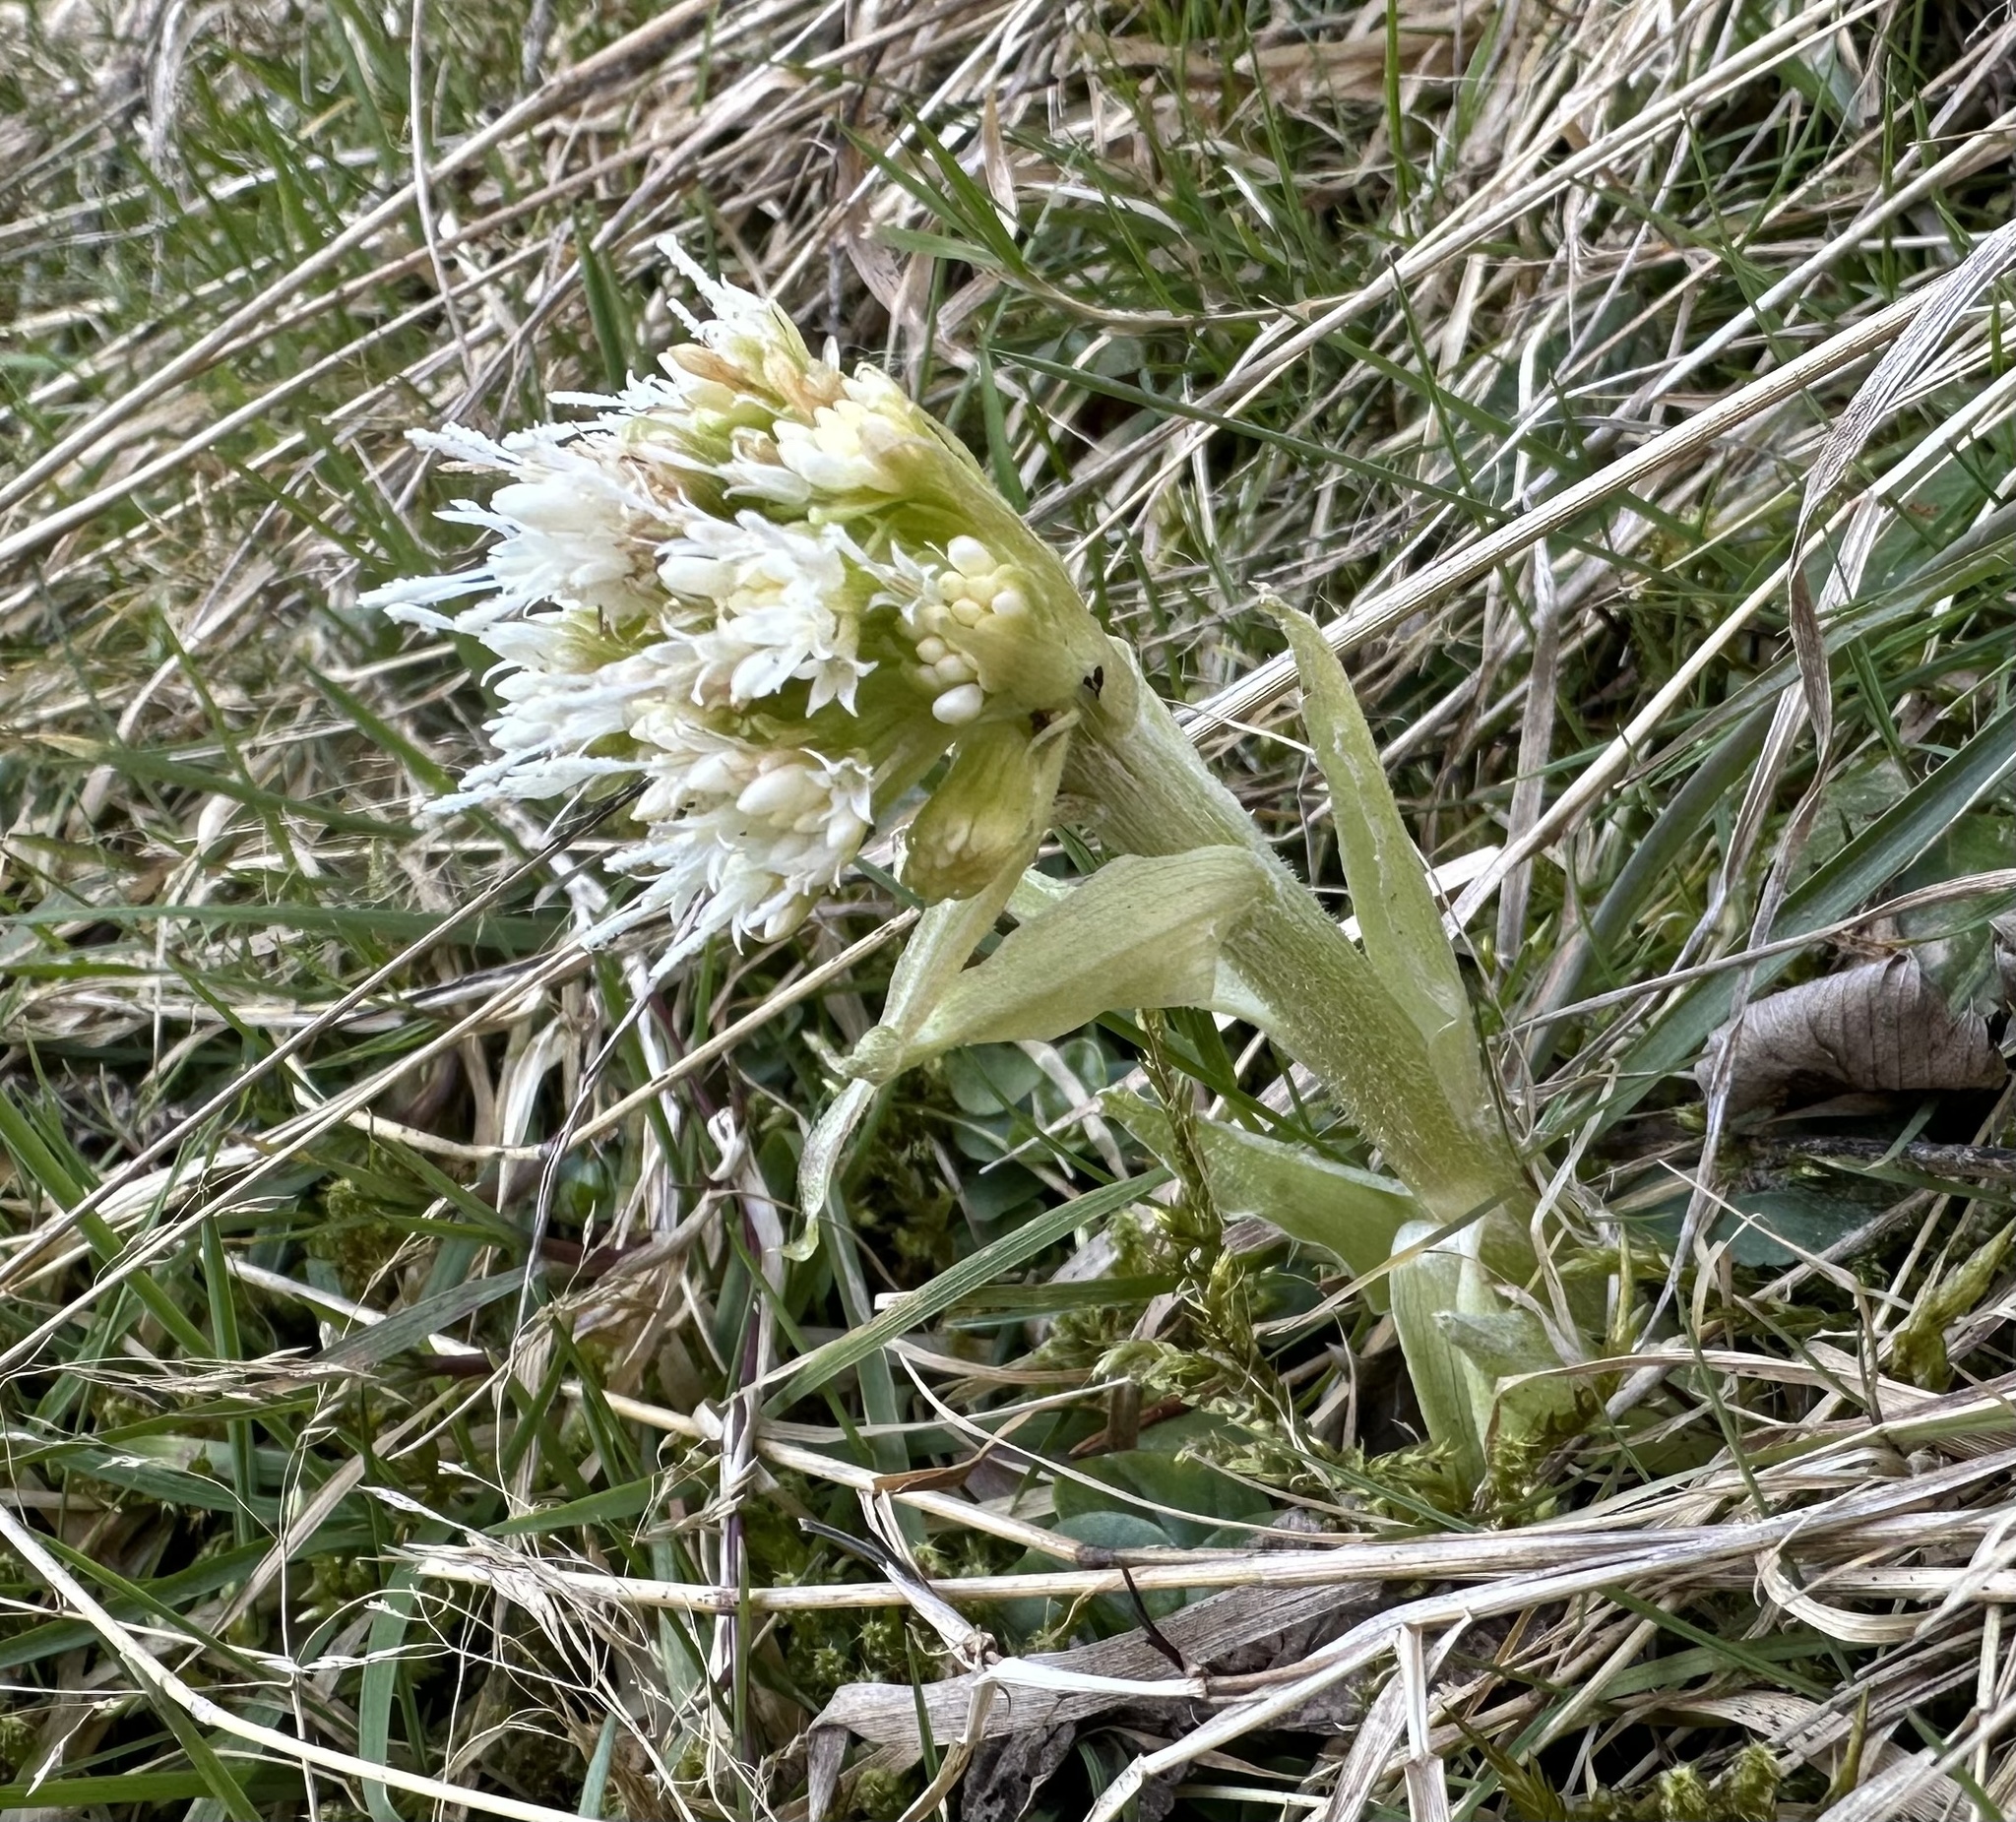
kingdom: Plantae
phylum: Tracheophyta
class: Magnoliopsida
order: Asterales
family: Asteraceae
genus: Petasites
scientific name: Petasites albus
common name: White butterbur
